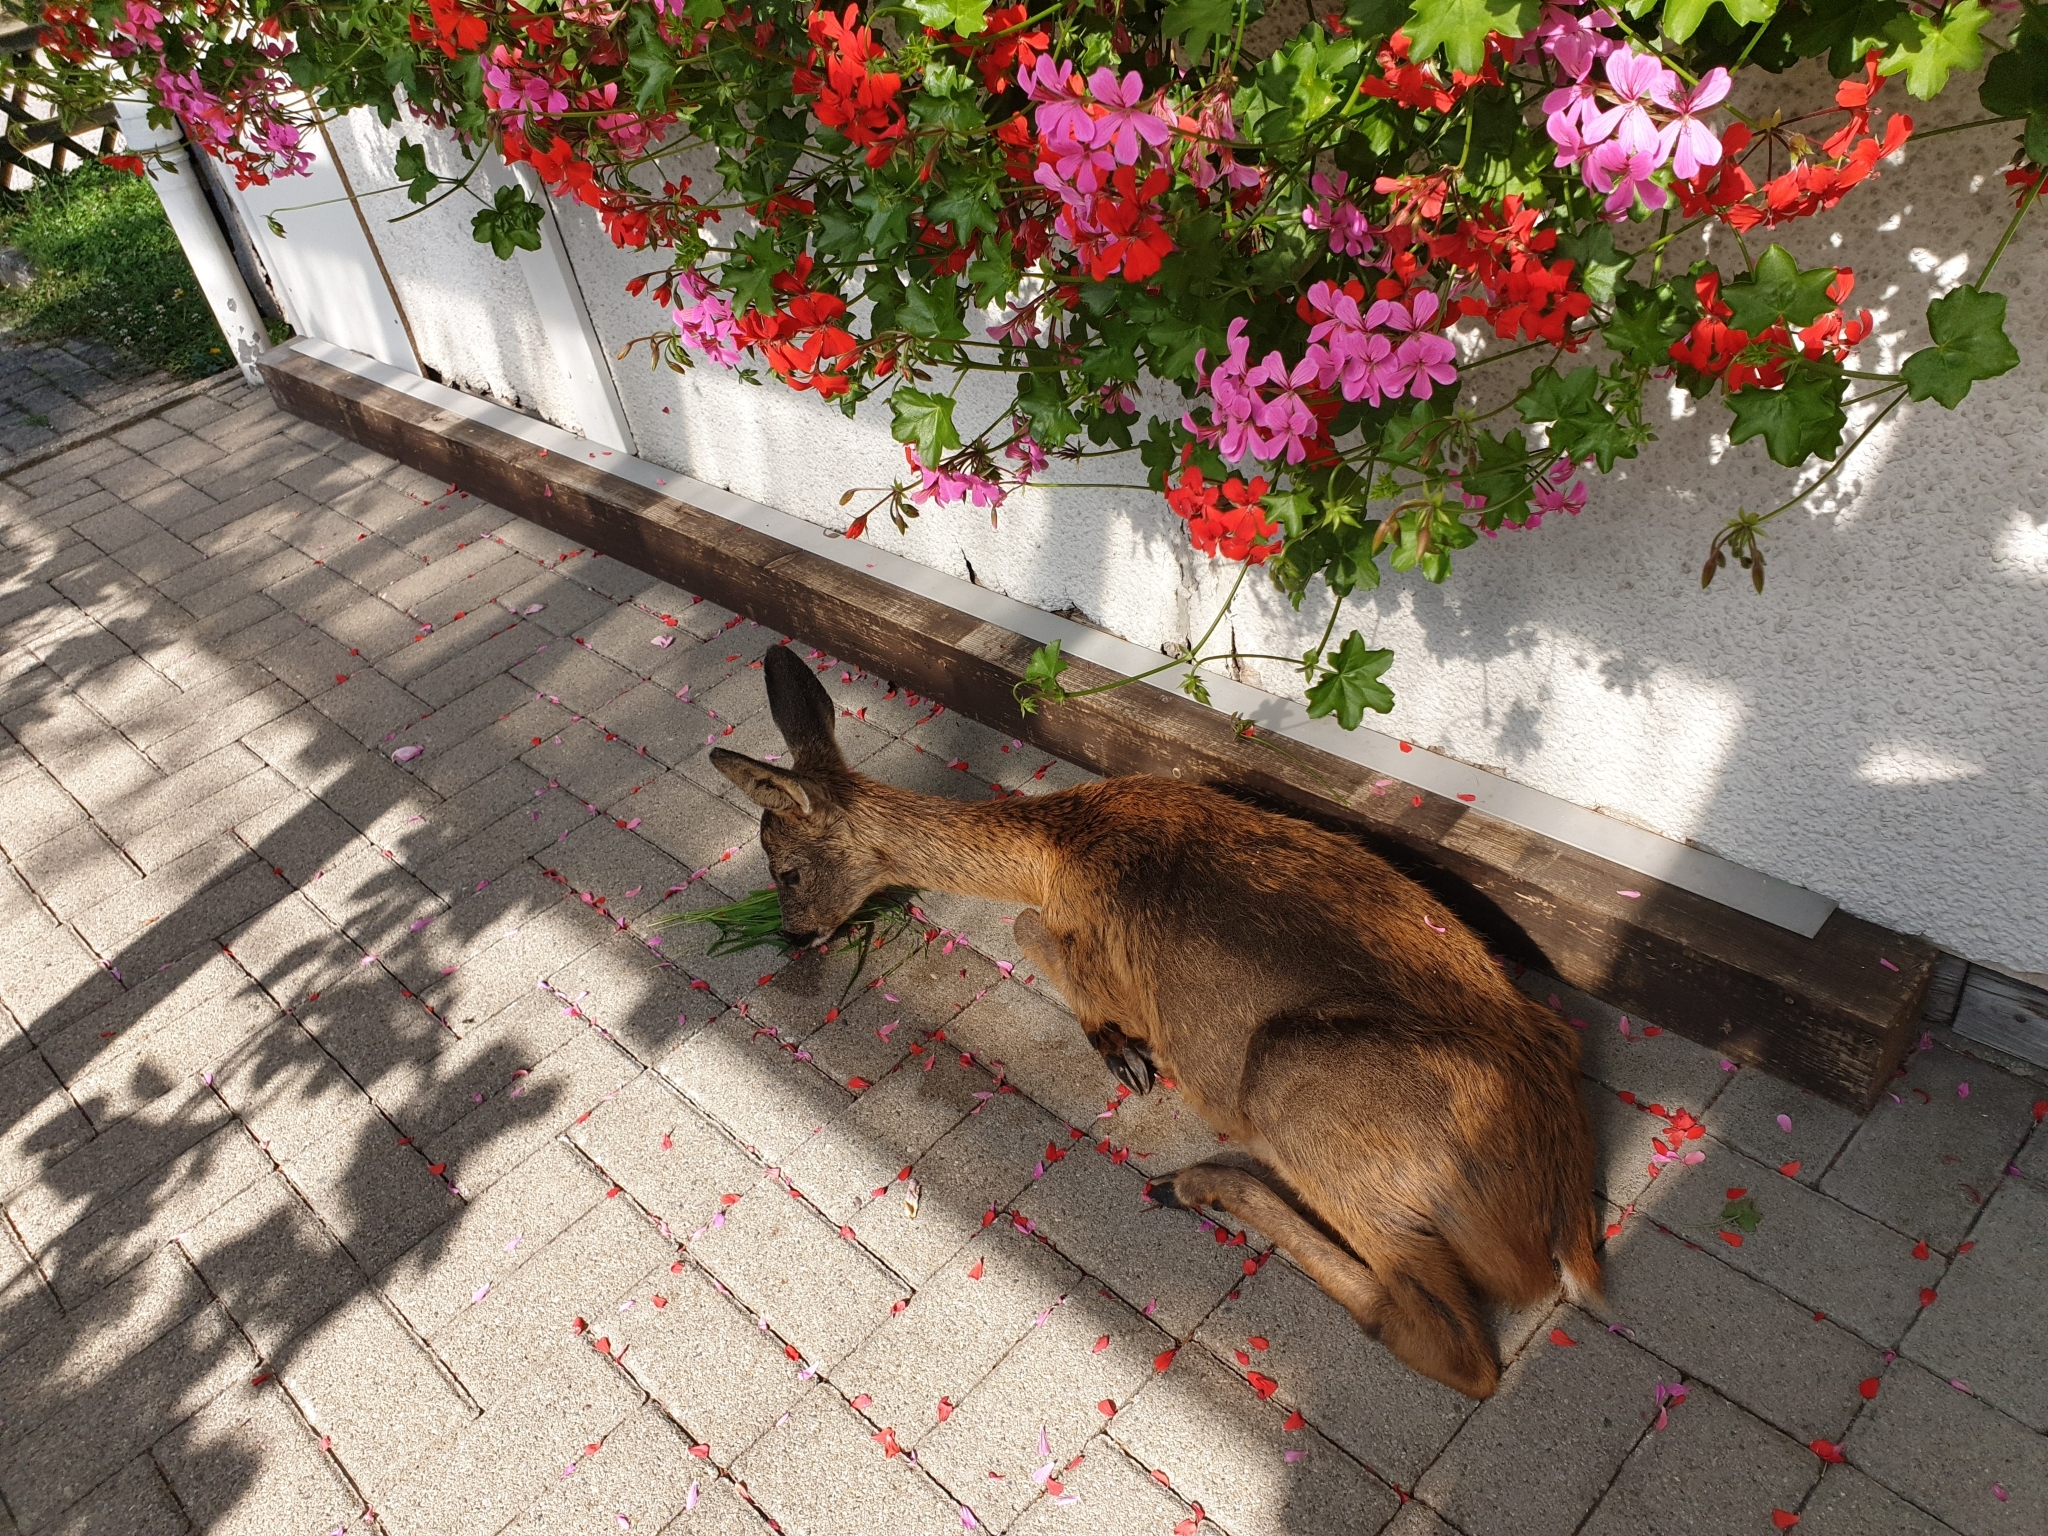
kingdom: Animalia
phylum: Chordata
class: Mammalia
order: Artiodactyla
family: Cervidae
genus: Capreolus
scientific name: Capreolus capreolus
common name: Western roe deer
